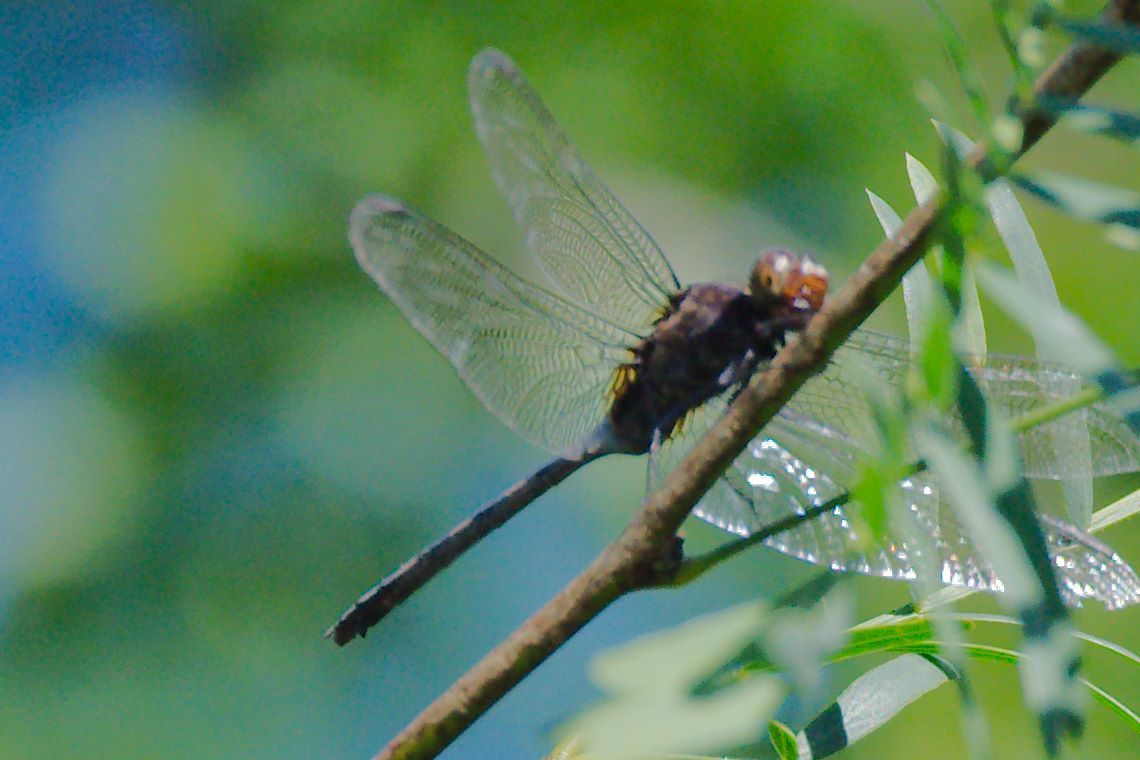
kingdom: Animalia
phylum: Arthropoda
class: Insecta
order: Odonata
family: Libellulidae
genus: Erythemis
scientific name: Erythemis plebeja
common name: Pin-tailed pondhawk
